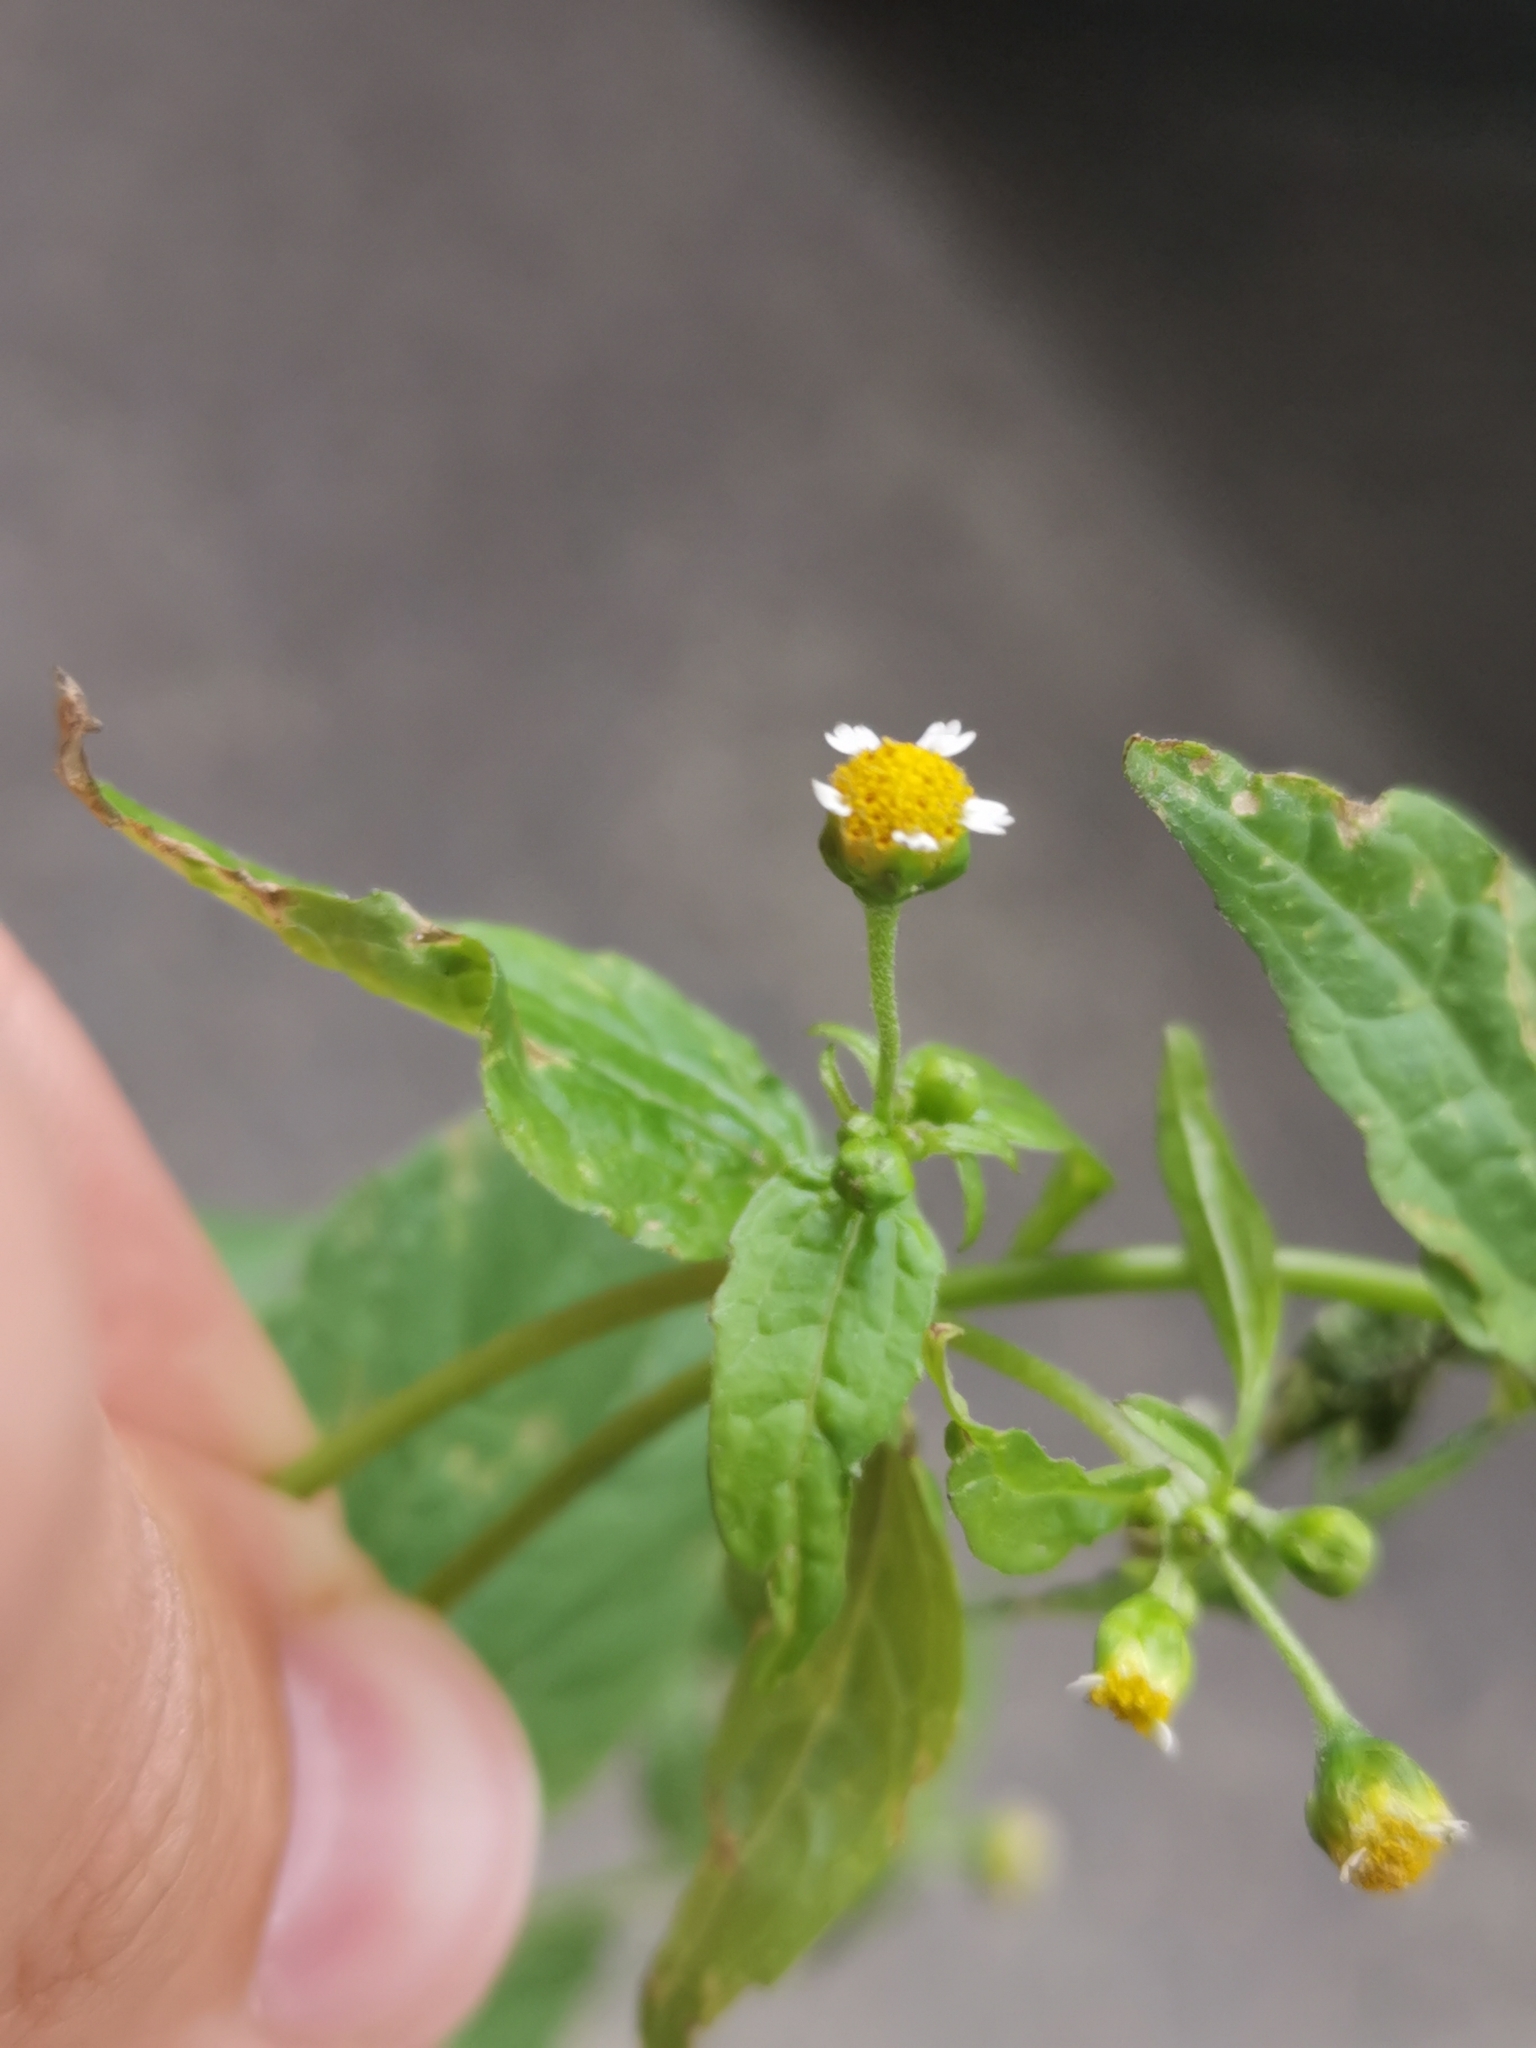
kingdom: Plantae
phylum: Tracheophyta
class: Magnoliopsida
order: Asterales
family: Asteraceae
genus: Galinsoga
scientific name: Galinsoga parviflora
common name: Gallant soldier
